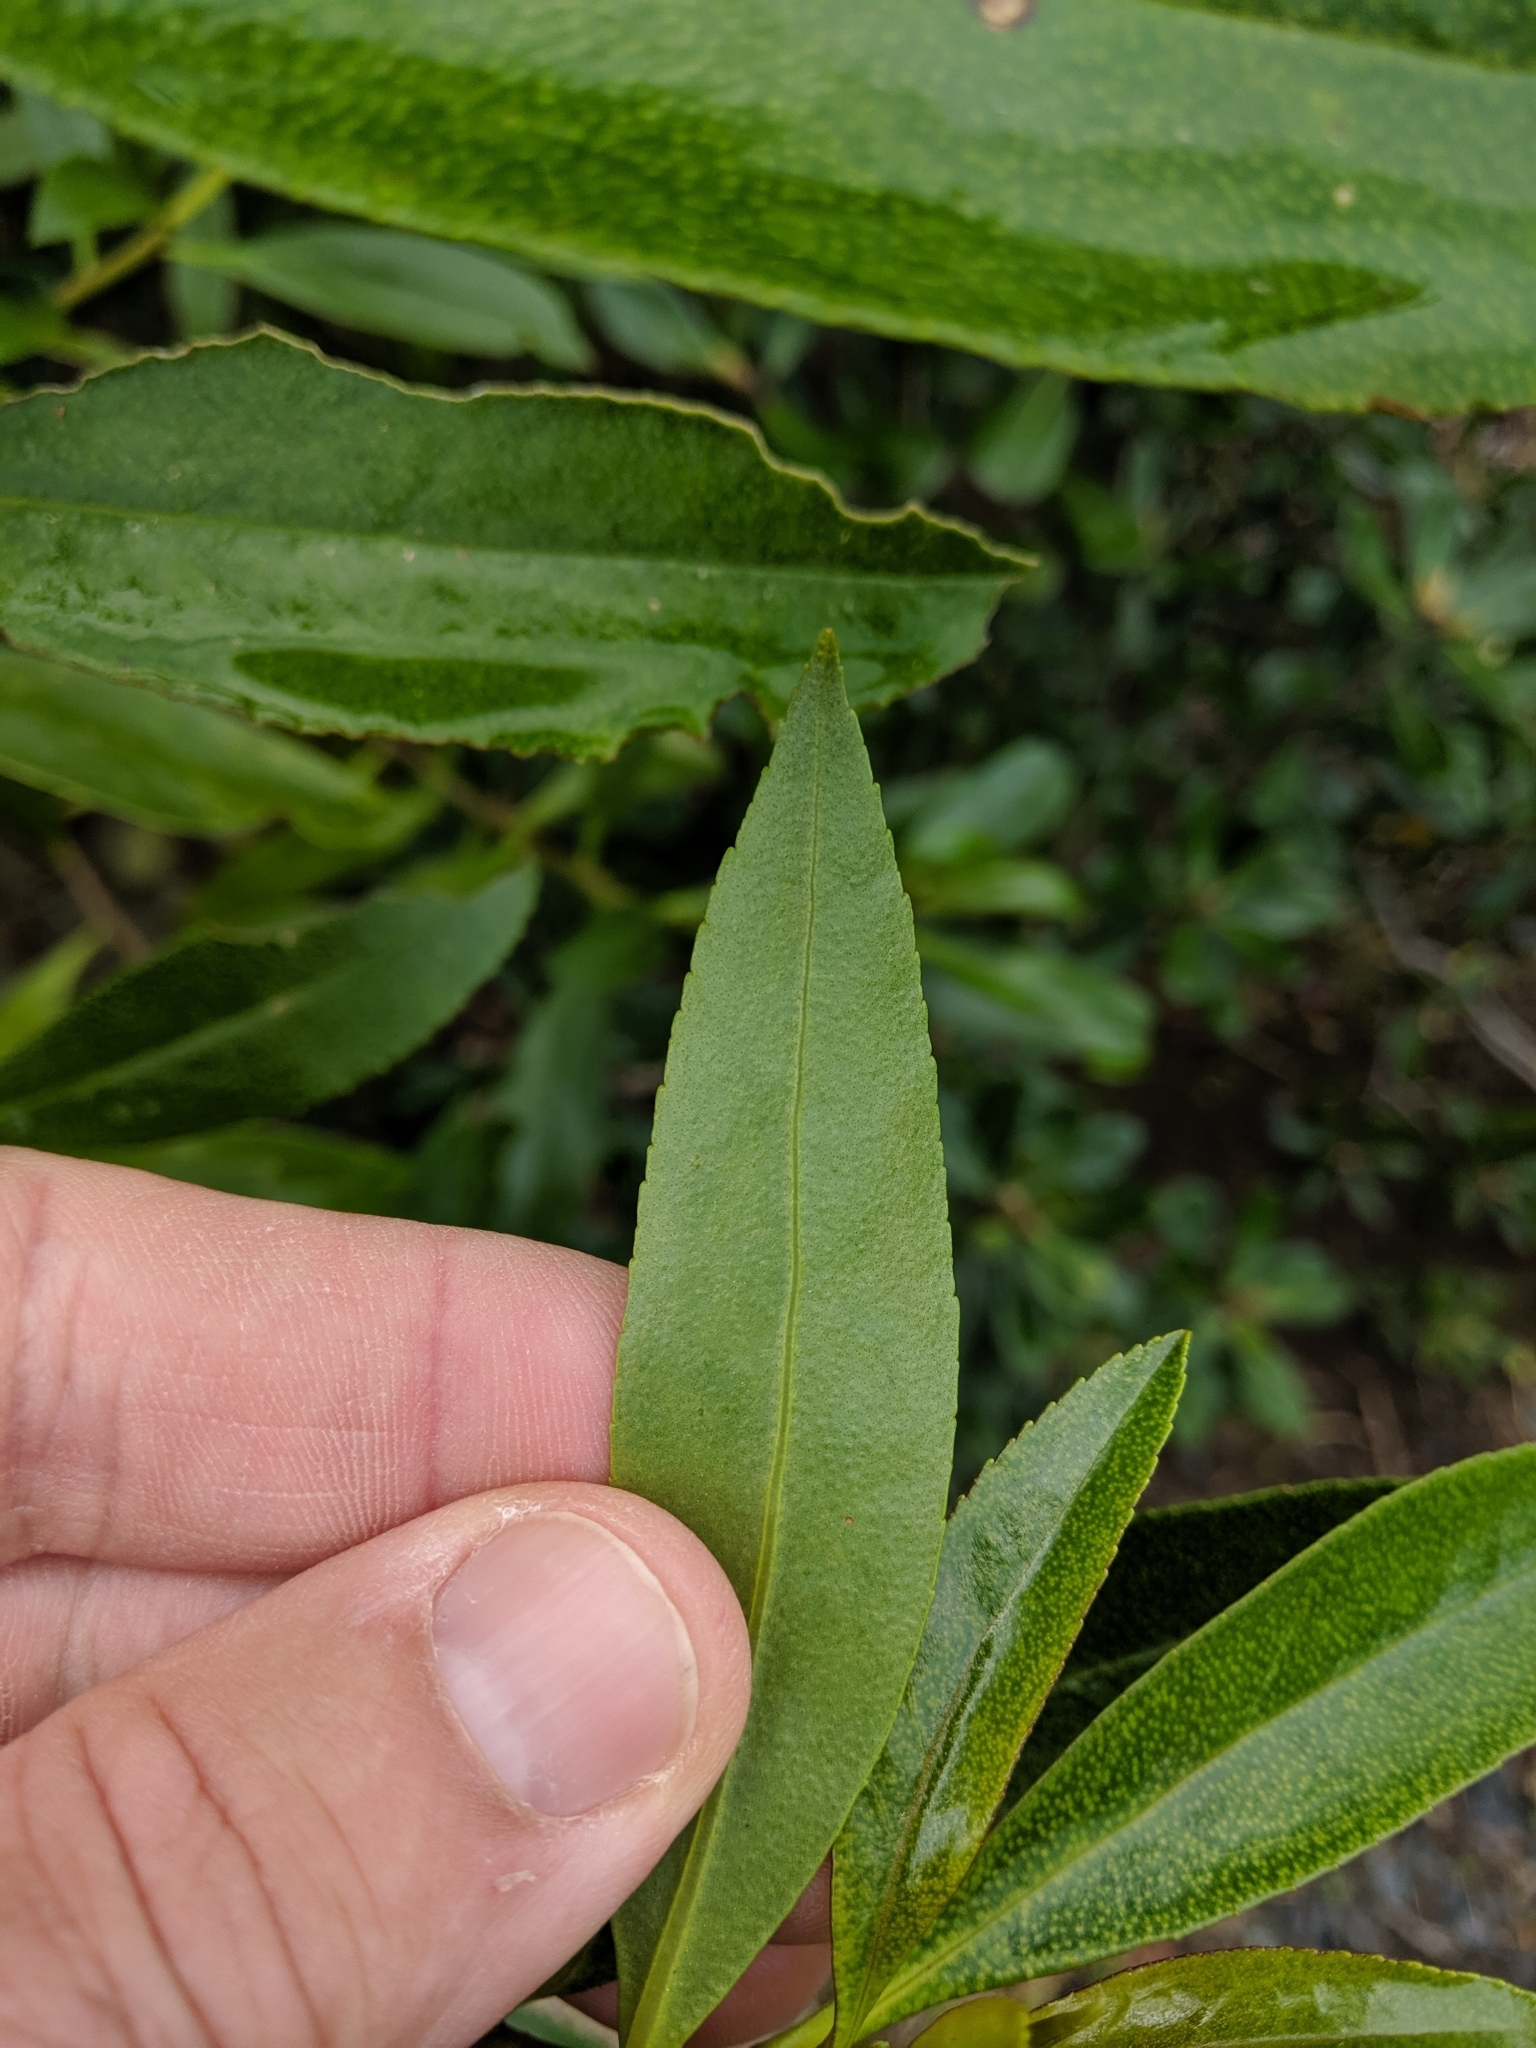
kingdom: Plantae
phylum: Tracheophyta
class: Magnoliopsida
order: Lamiales
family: Scrophulariaceae
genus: Myoporum
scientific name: Myoporum laetum
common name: Ngaio tree
